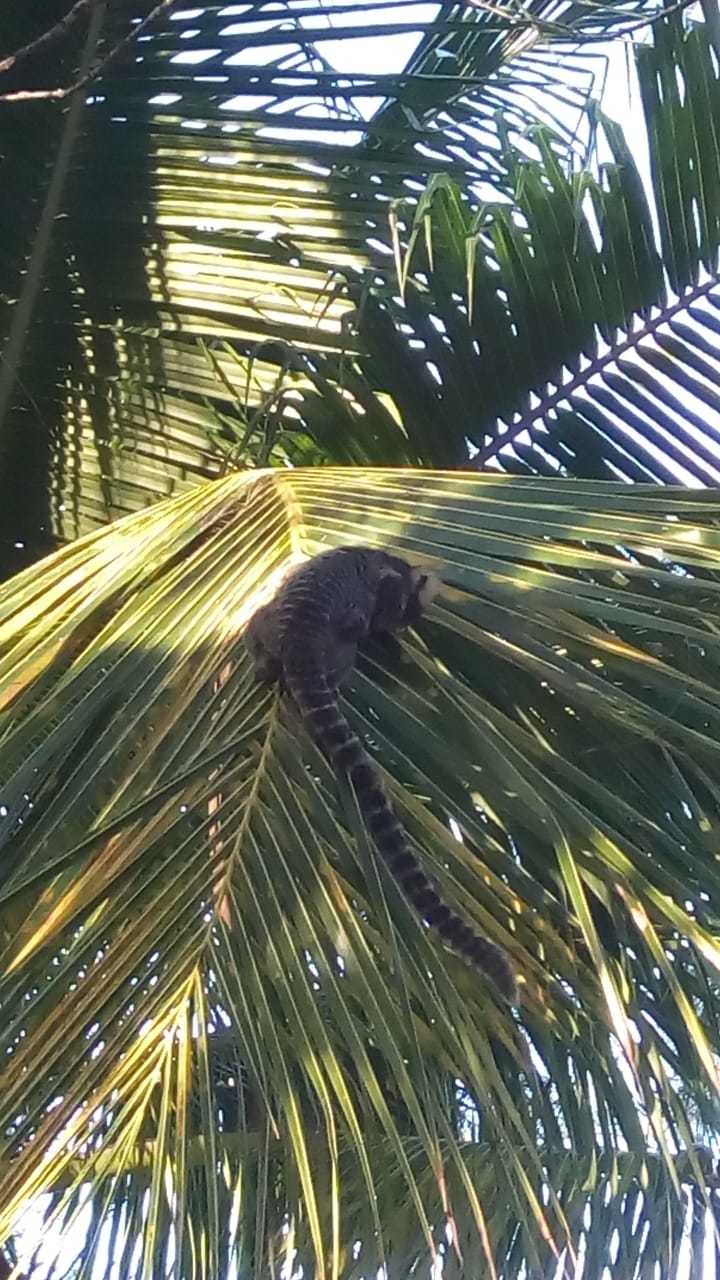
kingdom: Animalia
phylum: Chordata
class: Mammalia
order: Primates
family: Callitrichidae
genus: Callithrix
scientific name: Callithrix jacchus
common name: Common marmoset
